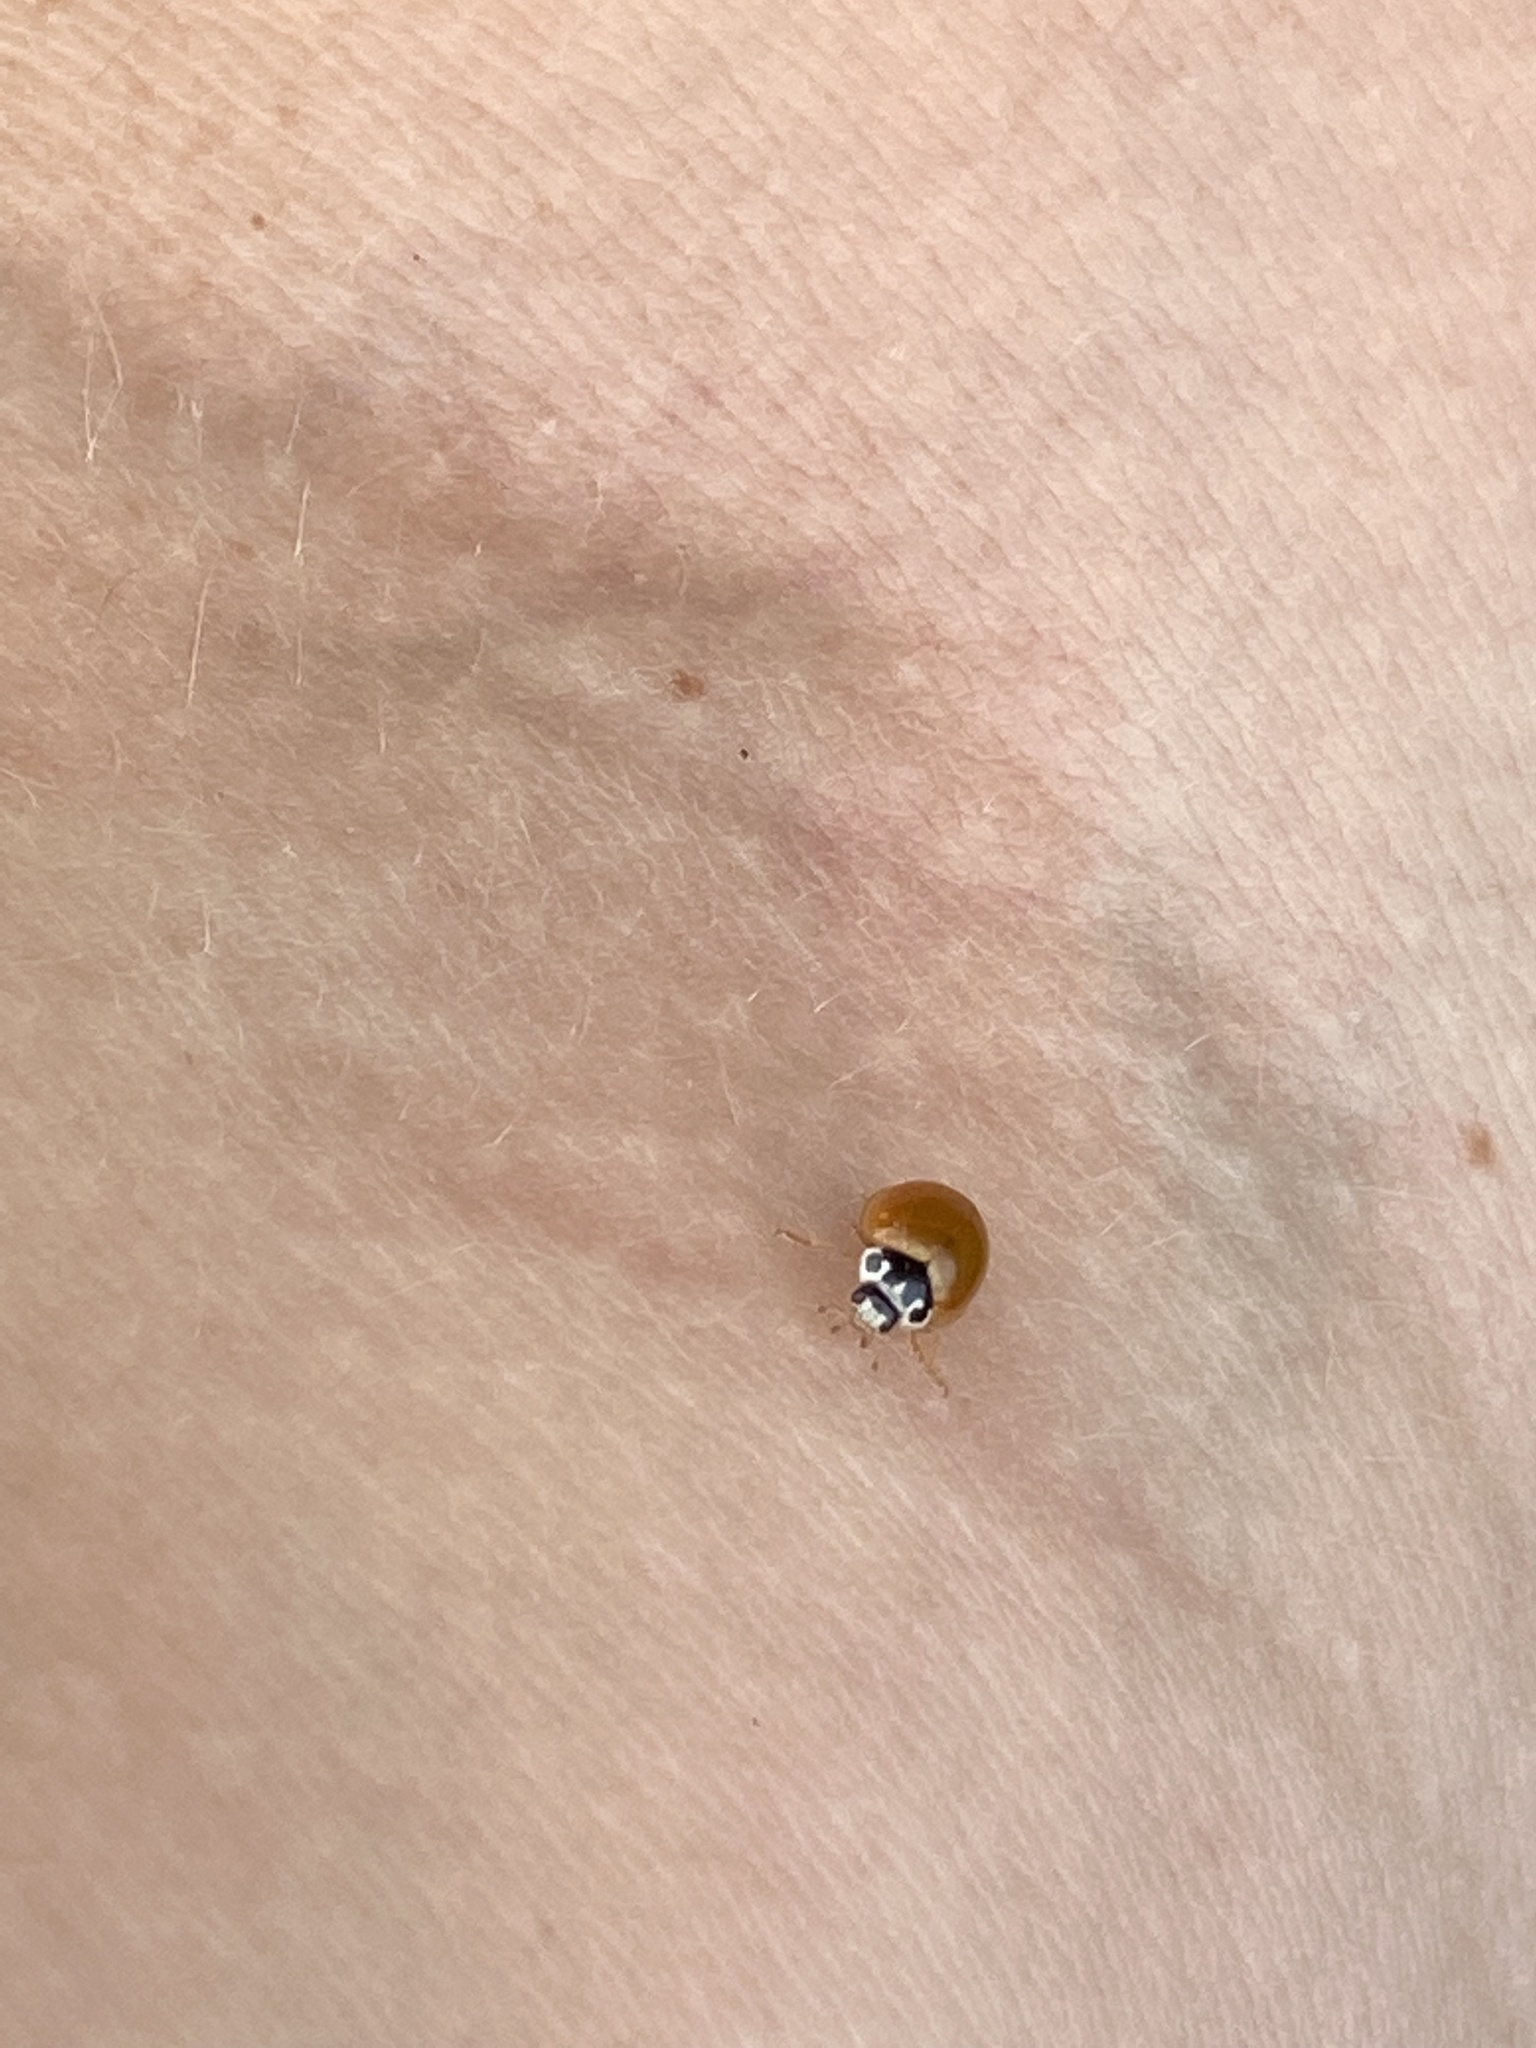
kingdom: Animalia
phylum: Arthropoda
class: Insecta
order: Coleoptera
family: Coccinellidae
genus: Cycloneda
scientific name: Cycloneda munda
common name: Polished lady beetle
